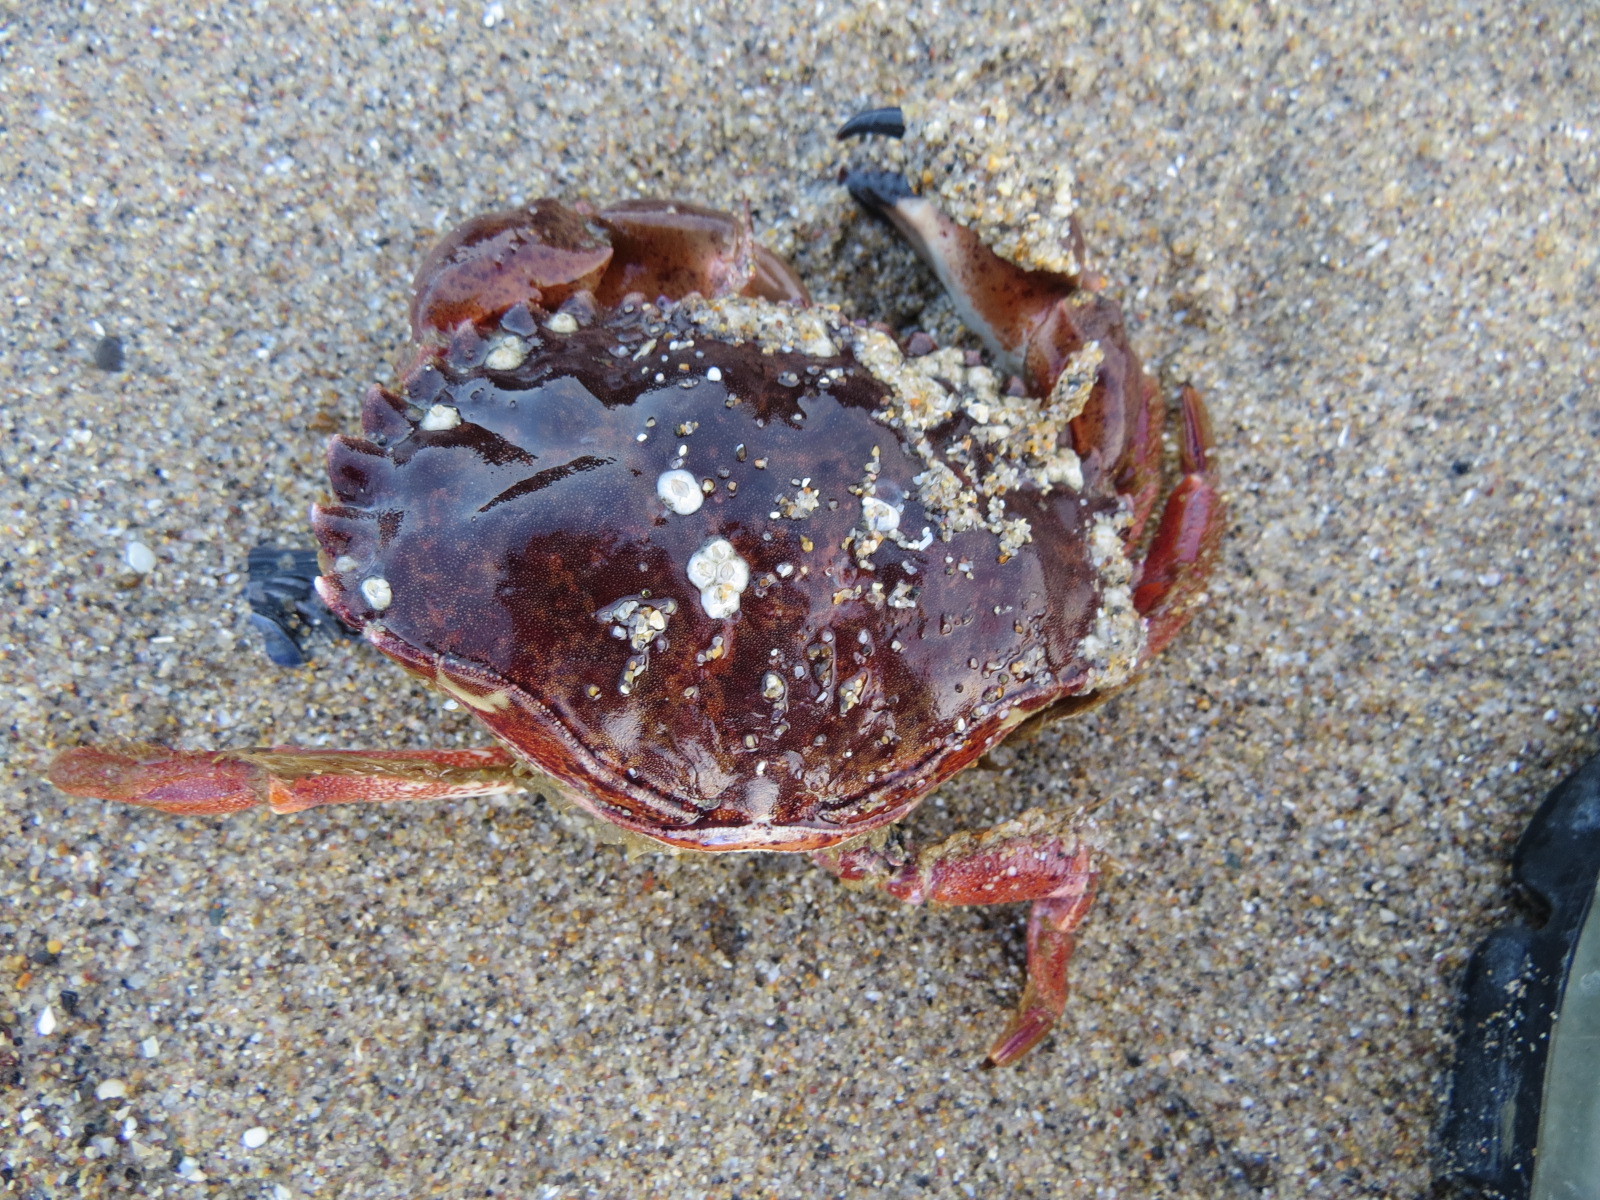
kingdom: Animalia
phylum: Arthropoda
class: Malacostraca
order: Decapoda
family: Cancridae
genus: Romaleon
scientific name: Romaleon antennarium
